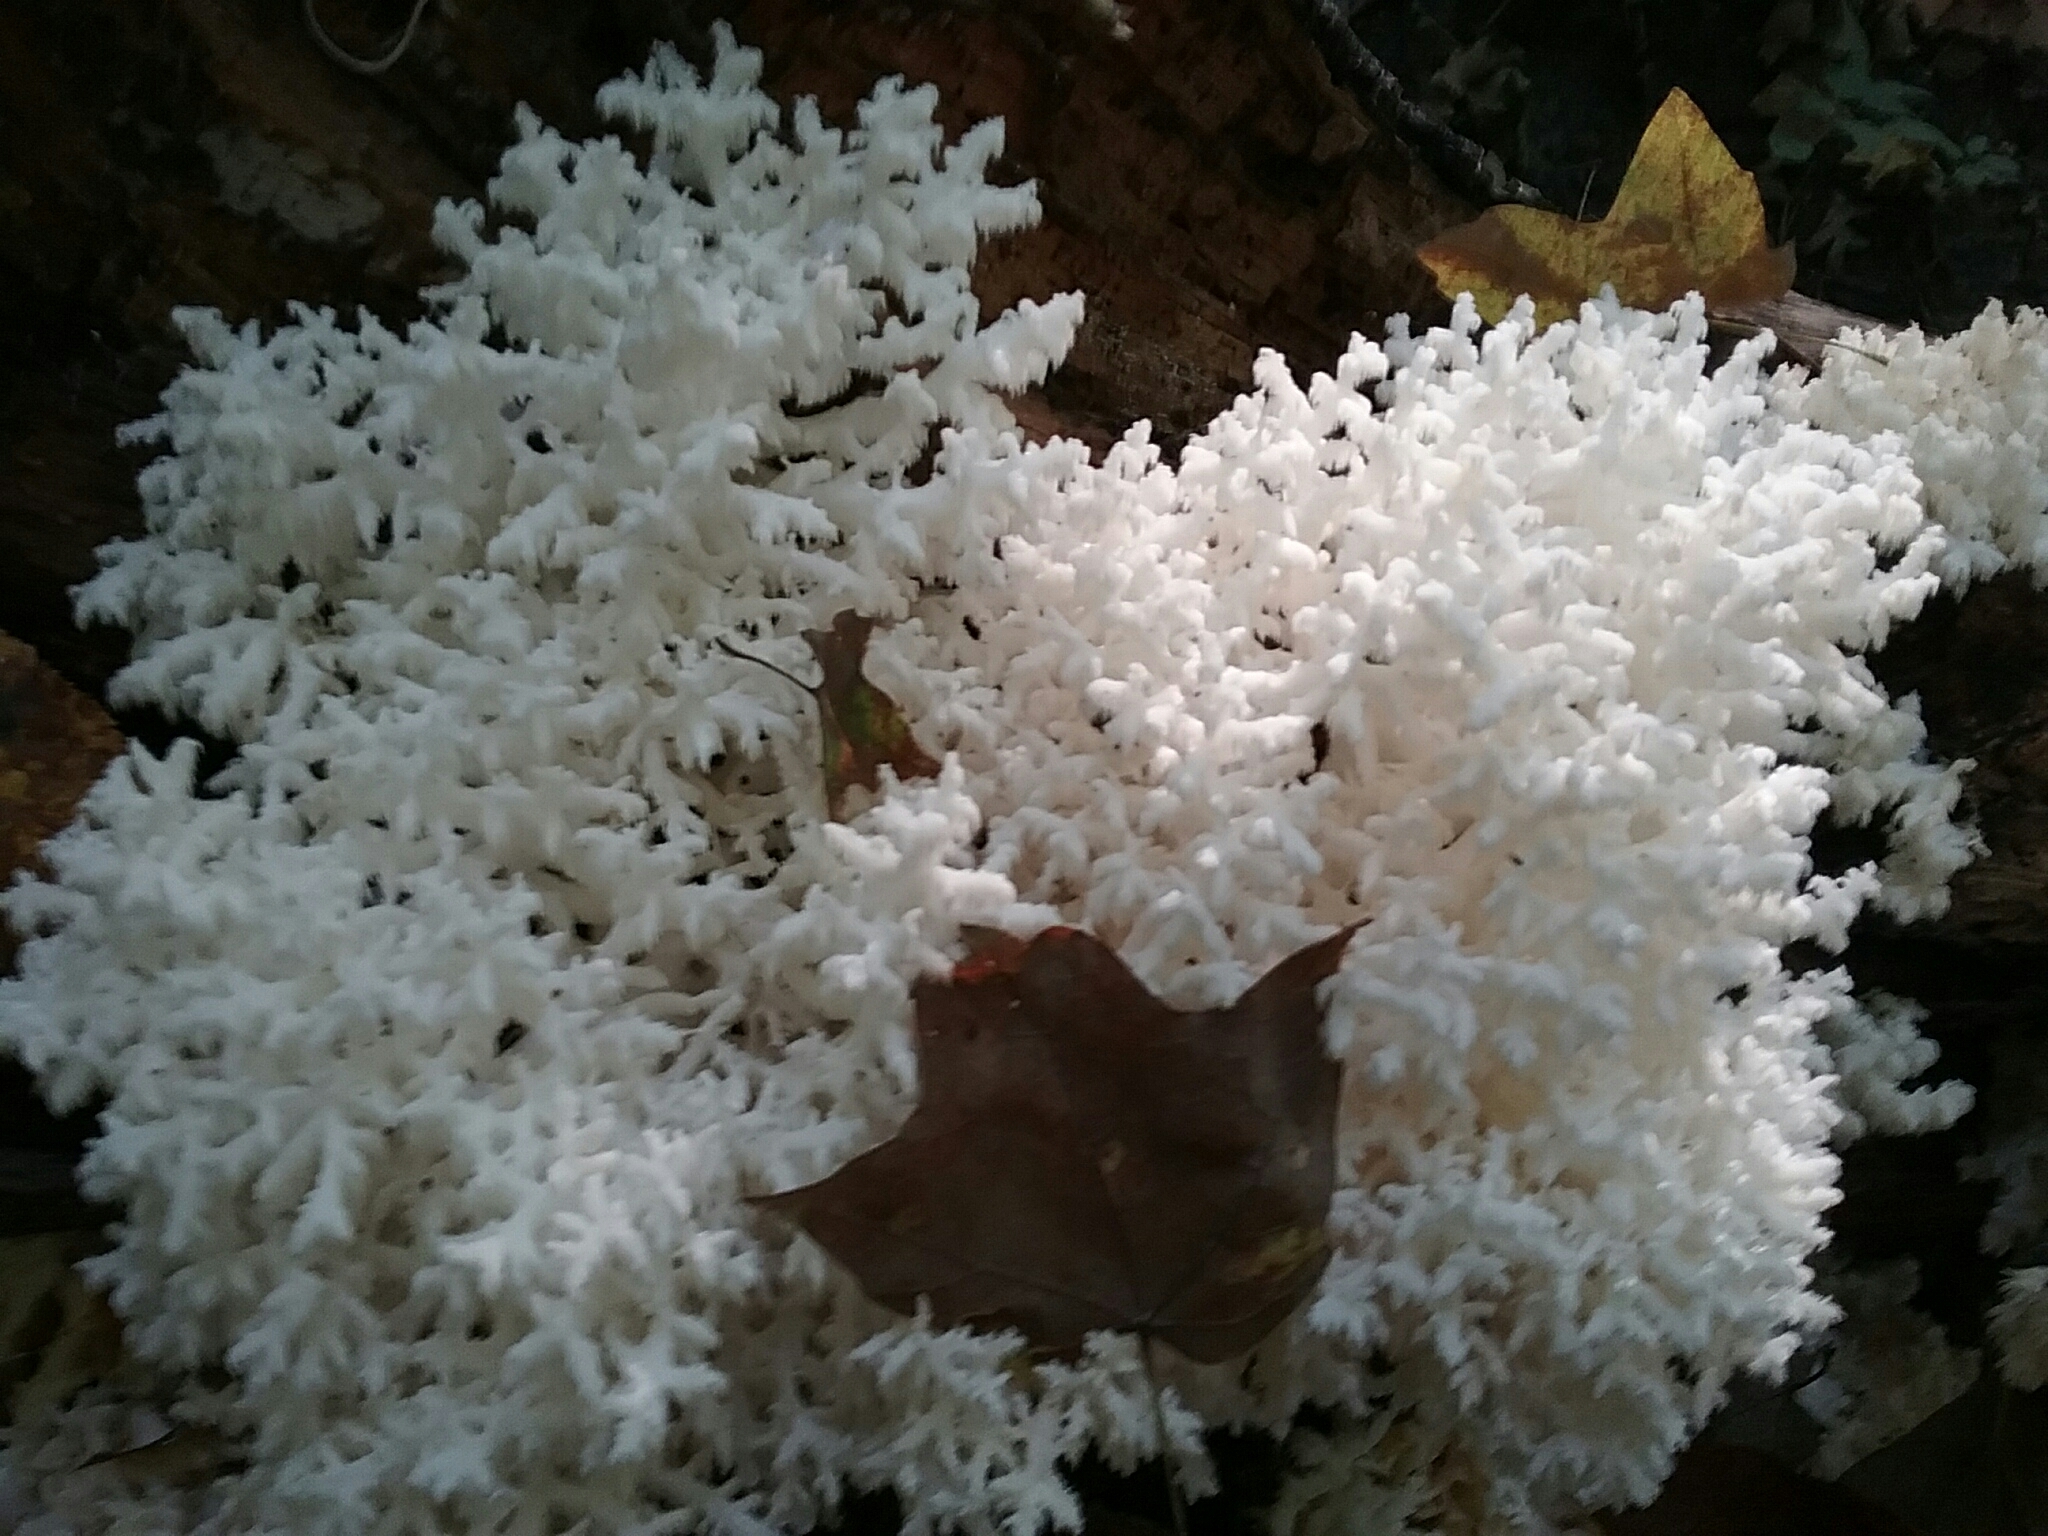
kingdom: Fungi
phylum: Basidiomycota
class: Agaricomycetes
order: Russulales
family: Hericiaceae
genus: Hericium
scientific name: Hericium coralloides
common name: Coral tooth
